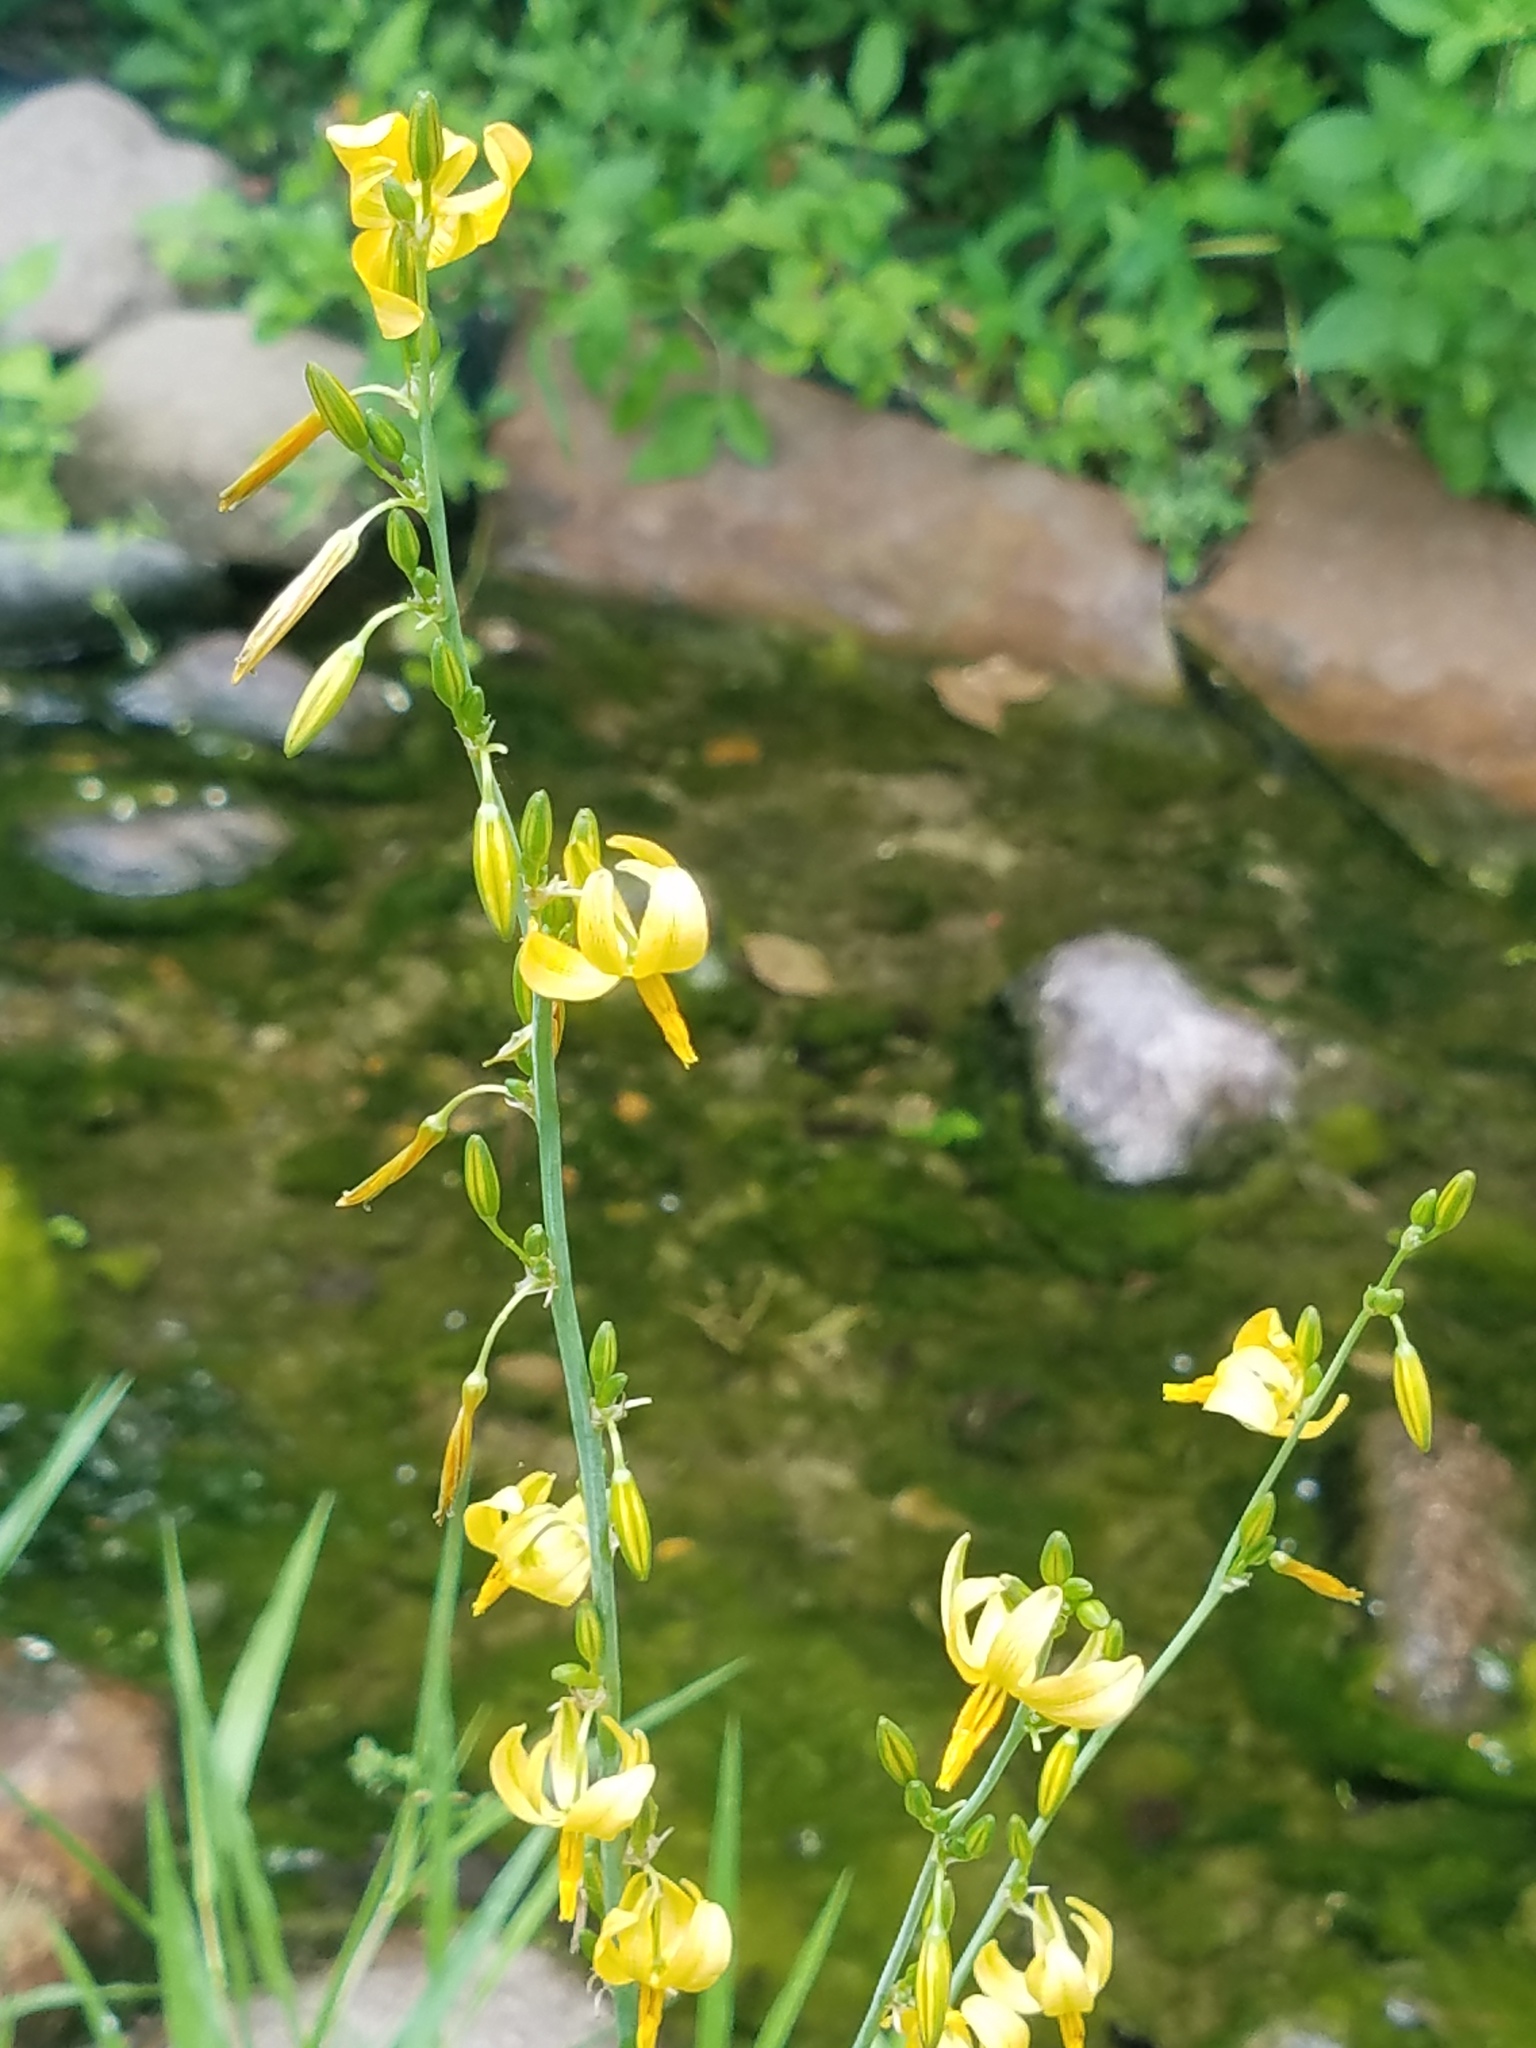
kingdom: Plantae
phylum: Tracheophyta
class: Liliopsida
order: Asparagales
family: Asparagaceae
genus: Echeandia
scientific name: Echeandia texensis
